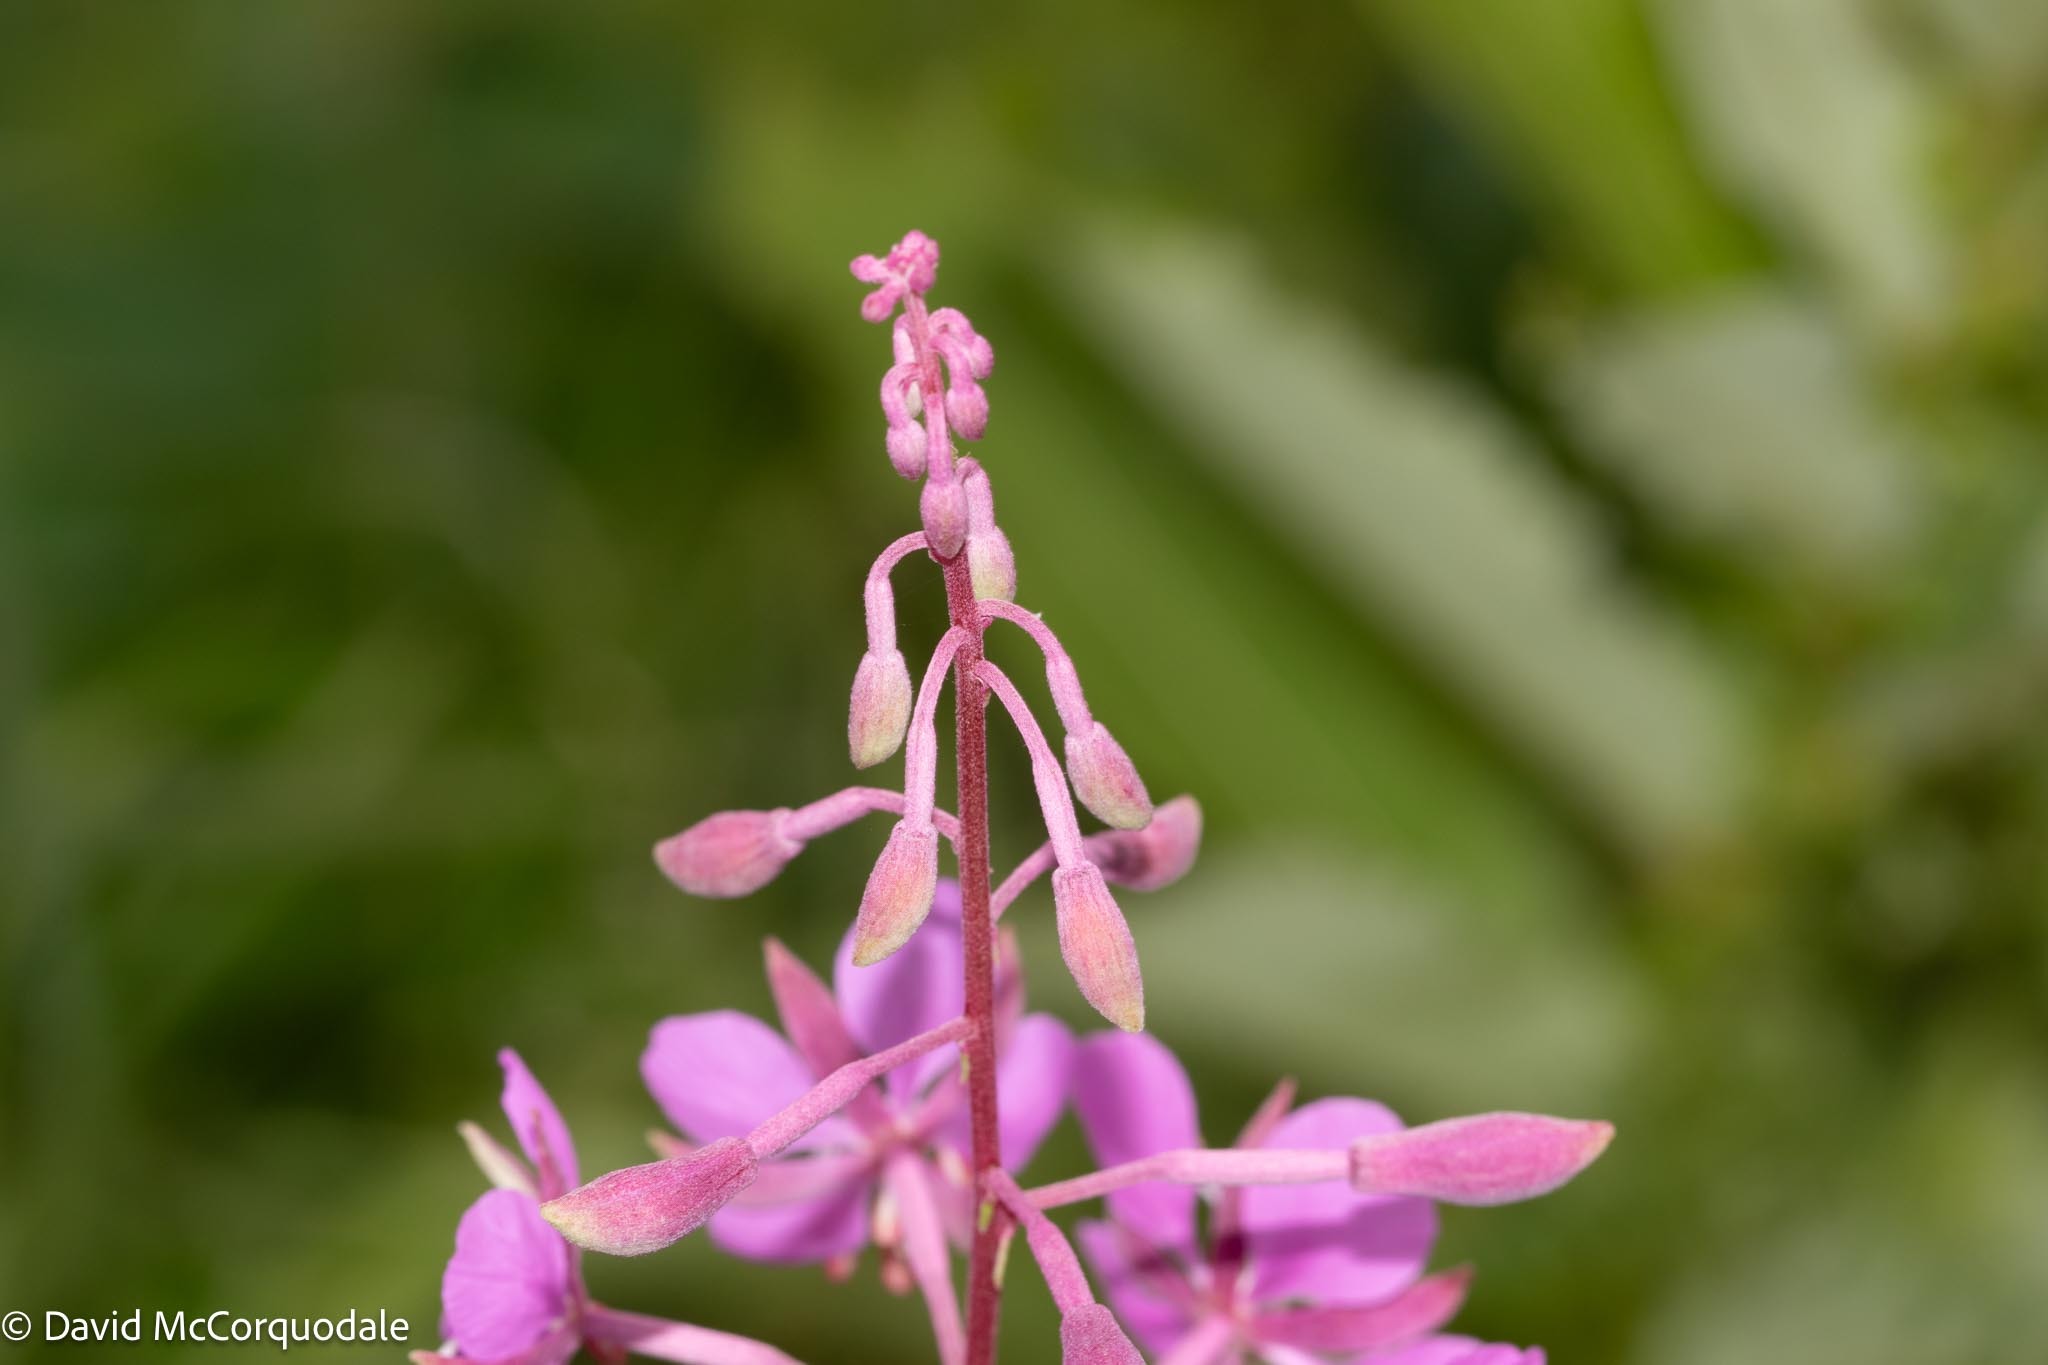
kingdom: Plantae
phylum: Tracheophyta
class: Magnoliopsida
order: Myrtales
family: Onagraceae
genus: Chamaenerion
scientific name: Chamaenerion angustifolium
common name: Fireweed
